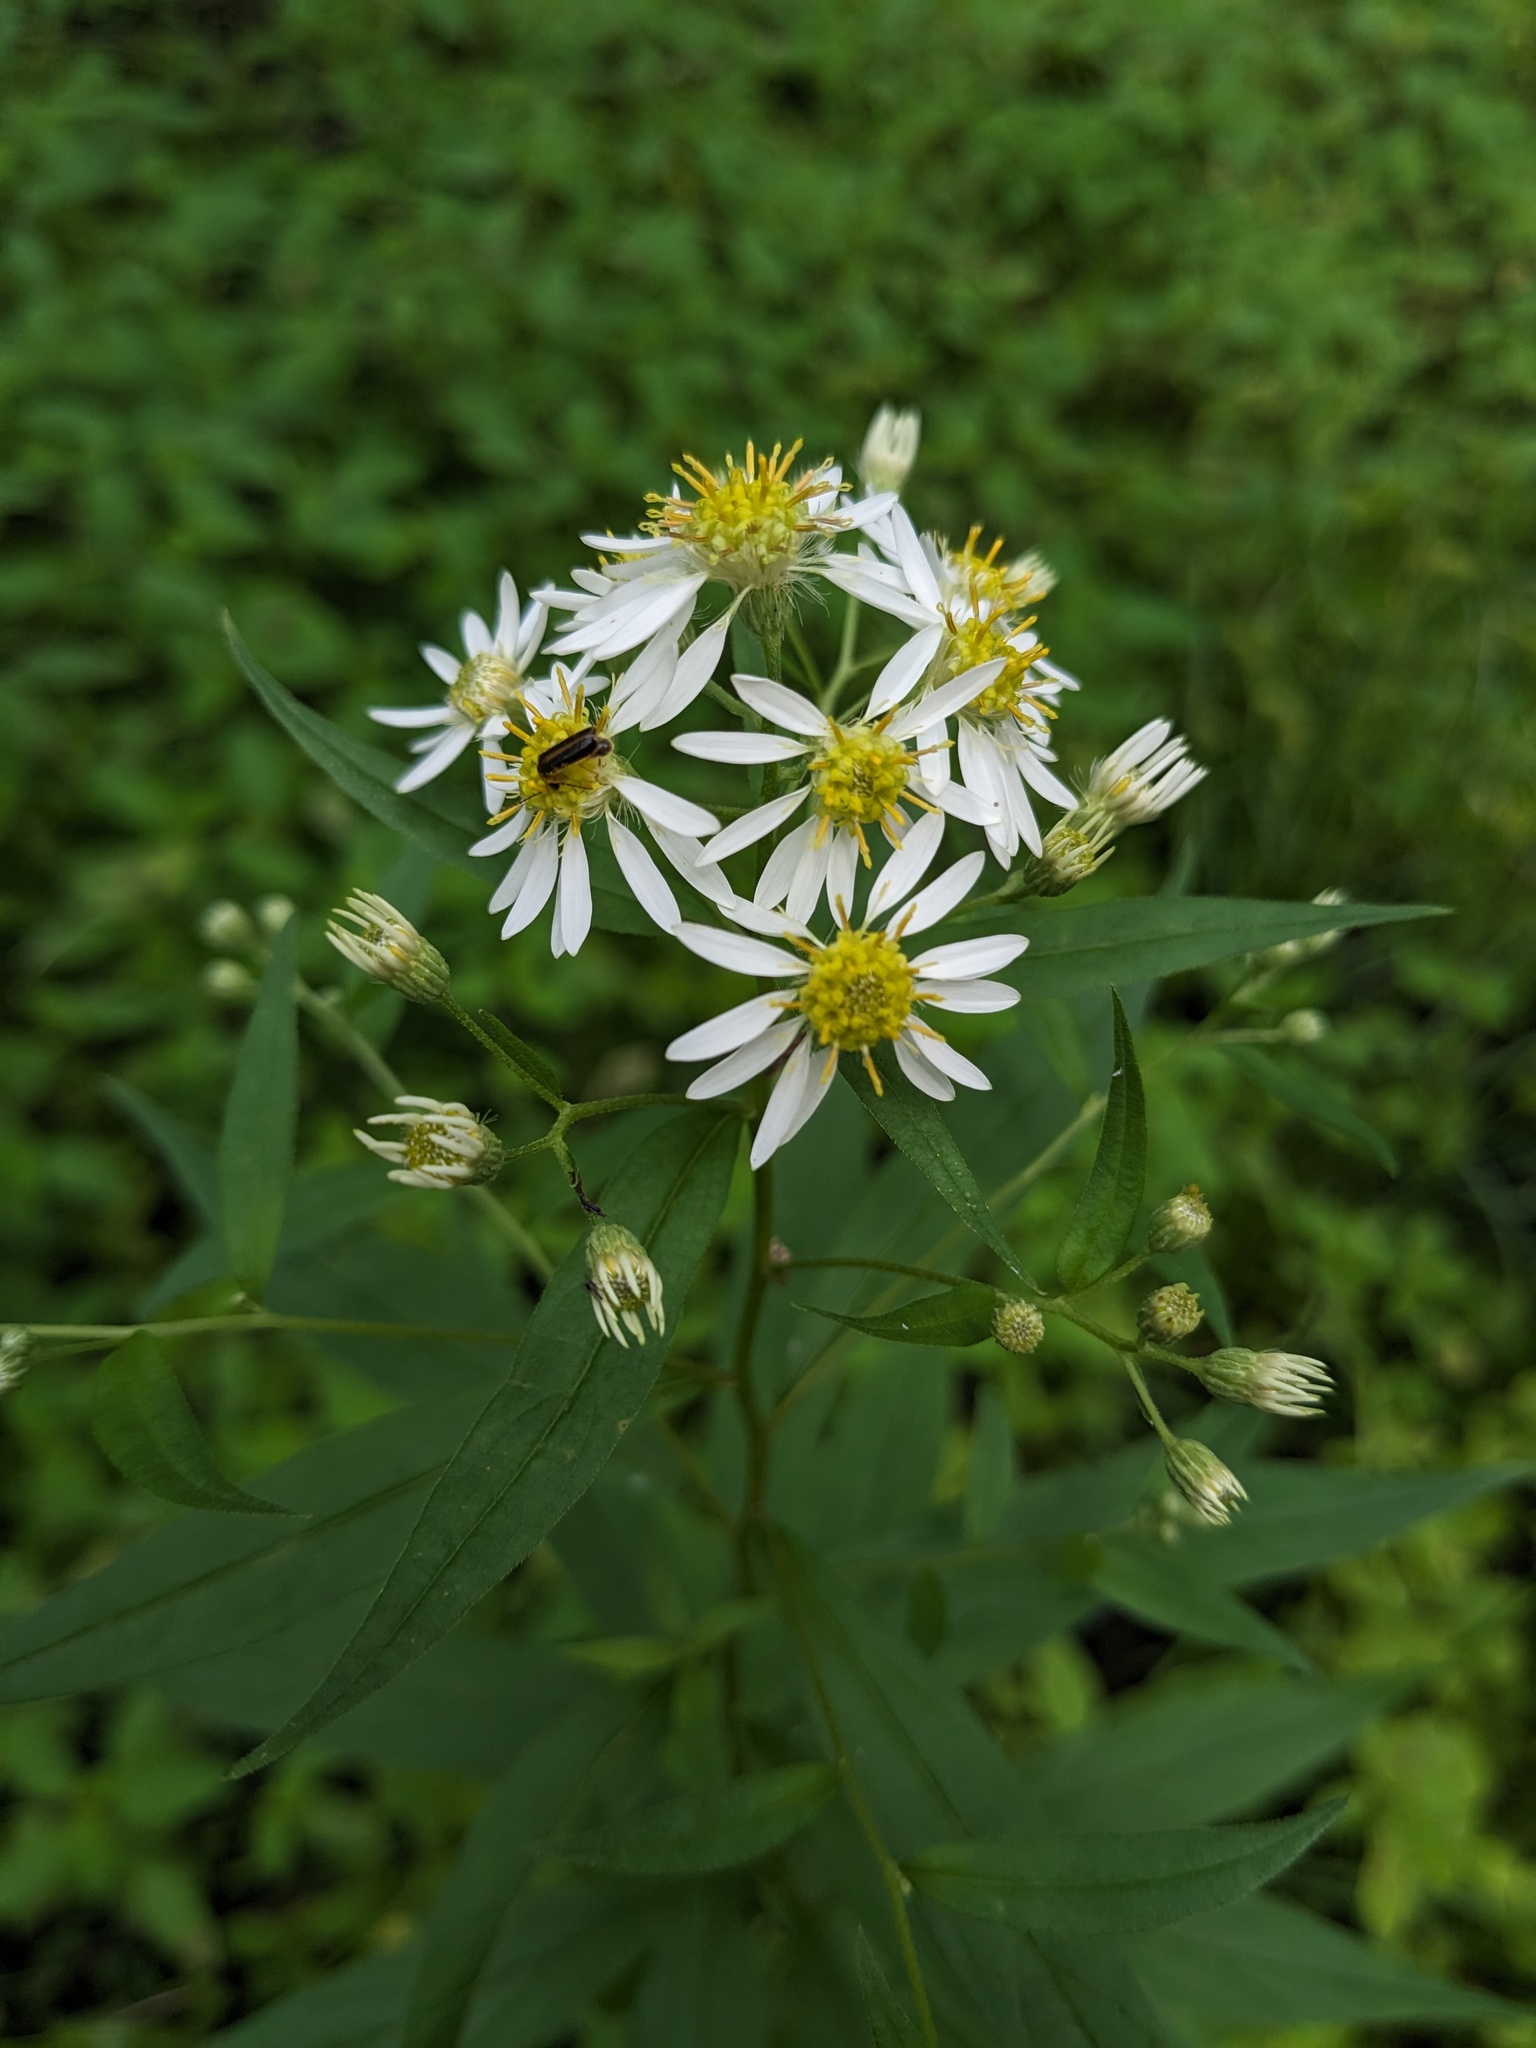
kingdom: Plantae
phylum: Tracheophyta
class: Magnoliopsida
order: Asterales
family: Asteraceae
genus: Doellingeria
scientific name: Doellingeria umbellata
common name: Flat-top white aster
